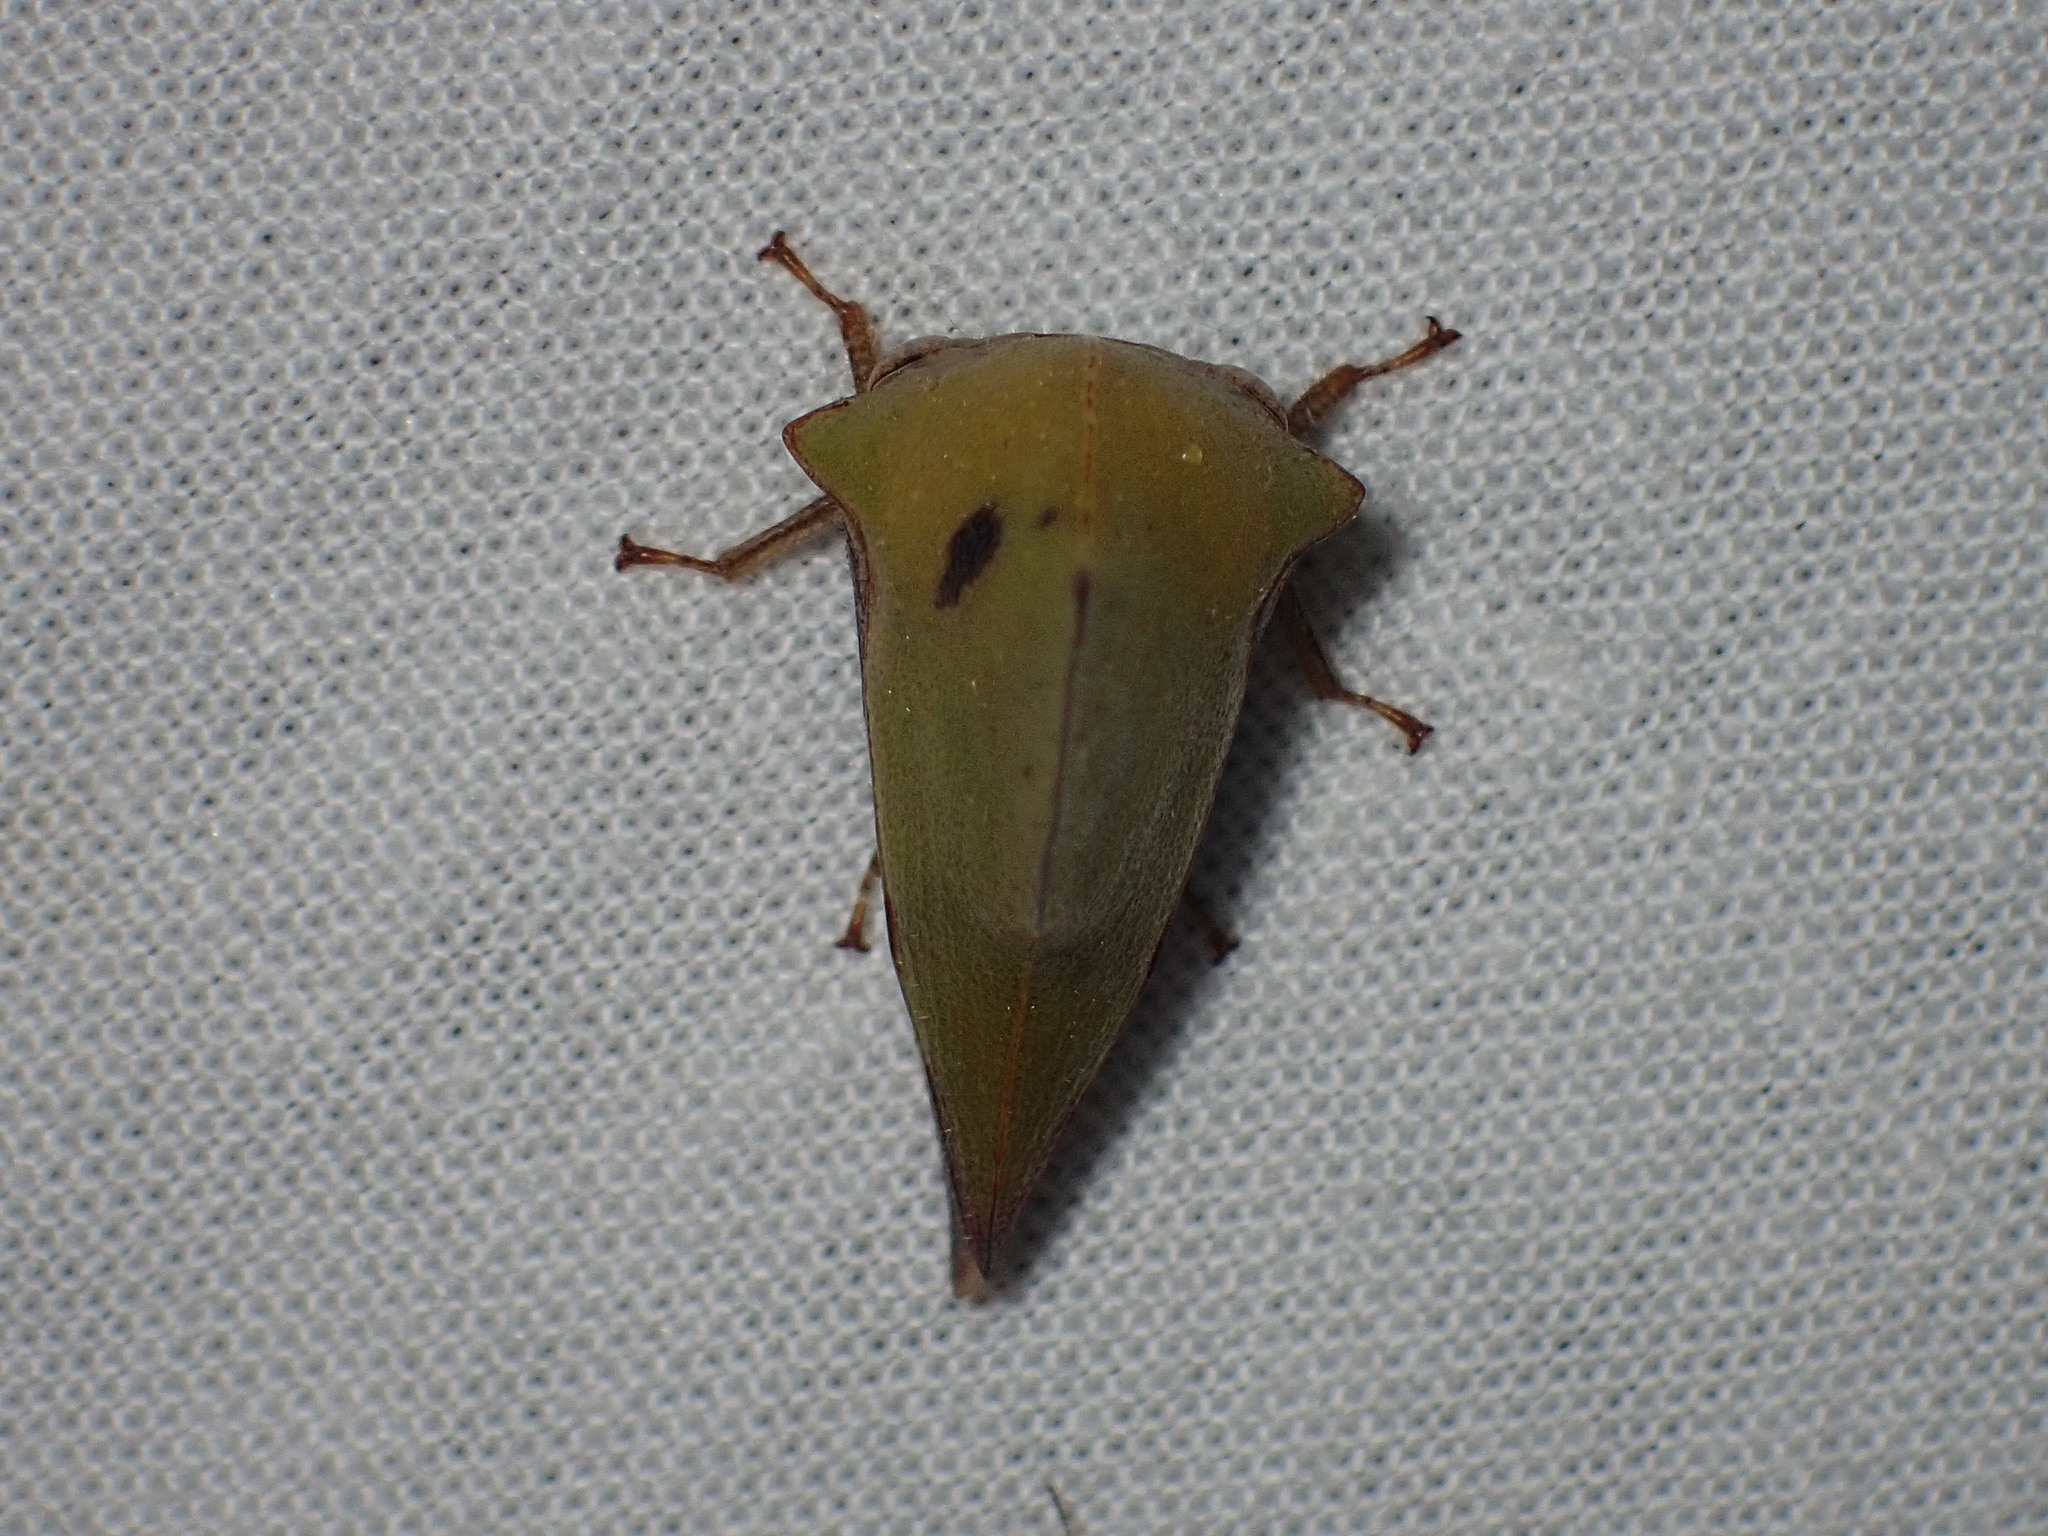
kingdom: Animalia
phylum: Arthropoda
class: Insecta
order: Hemiptera
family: Membracidae
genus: Helonica
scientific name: Helonica excelsa
